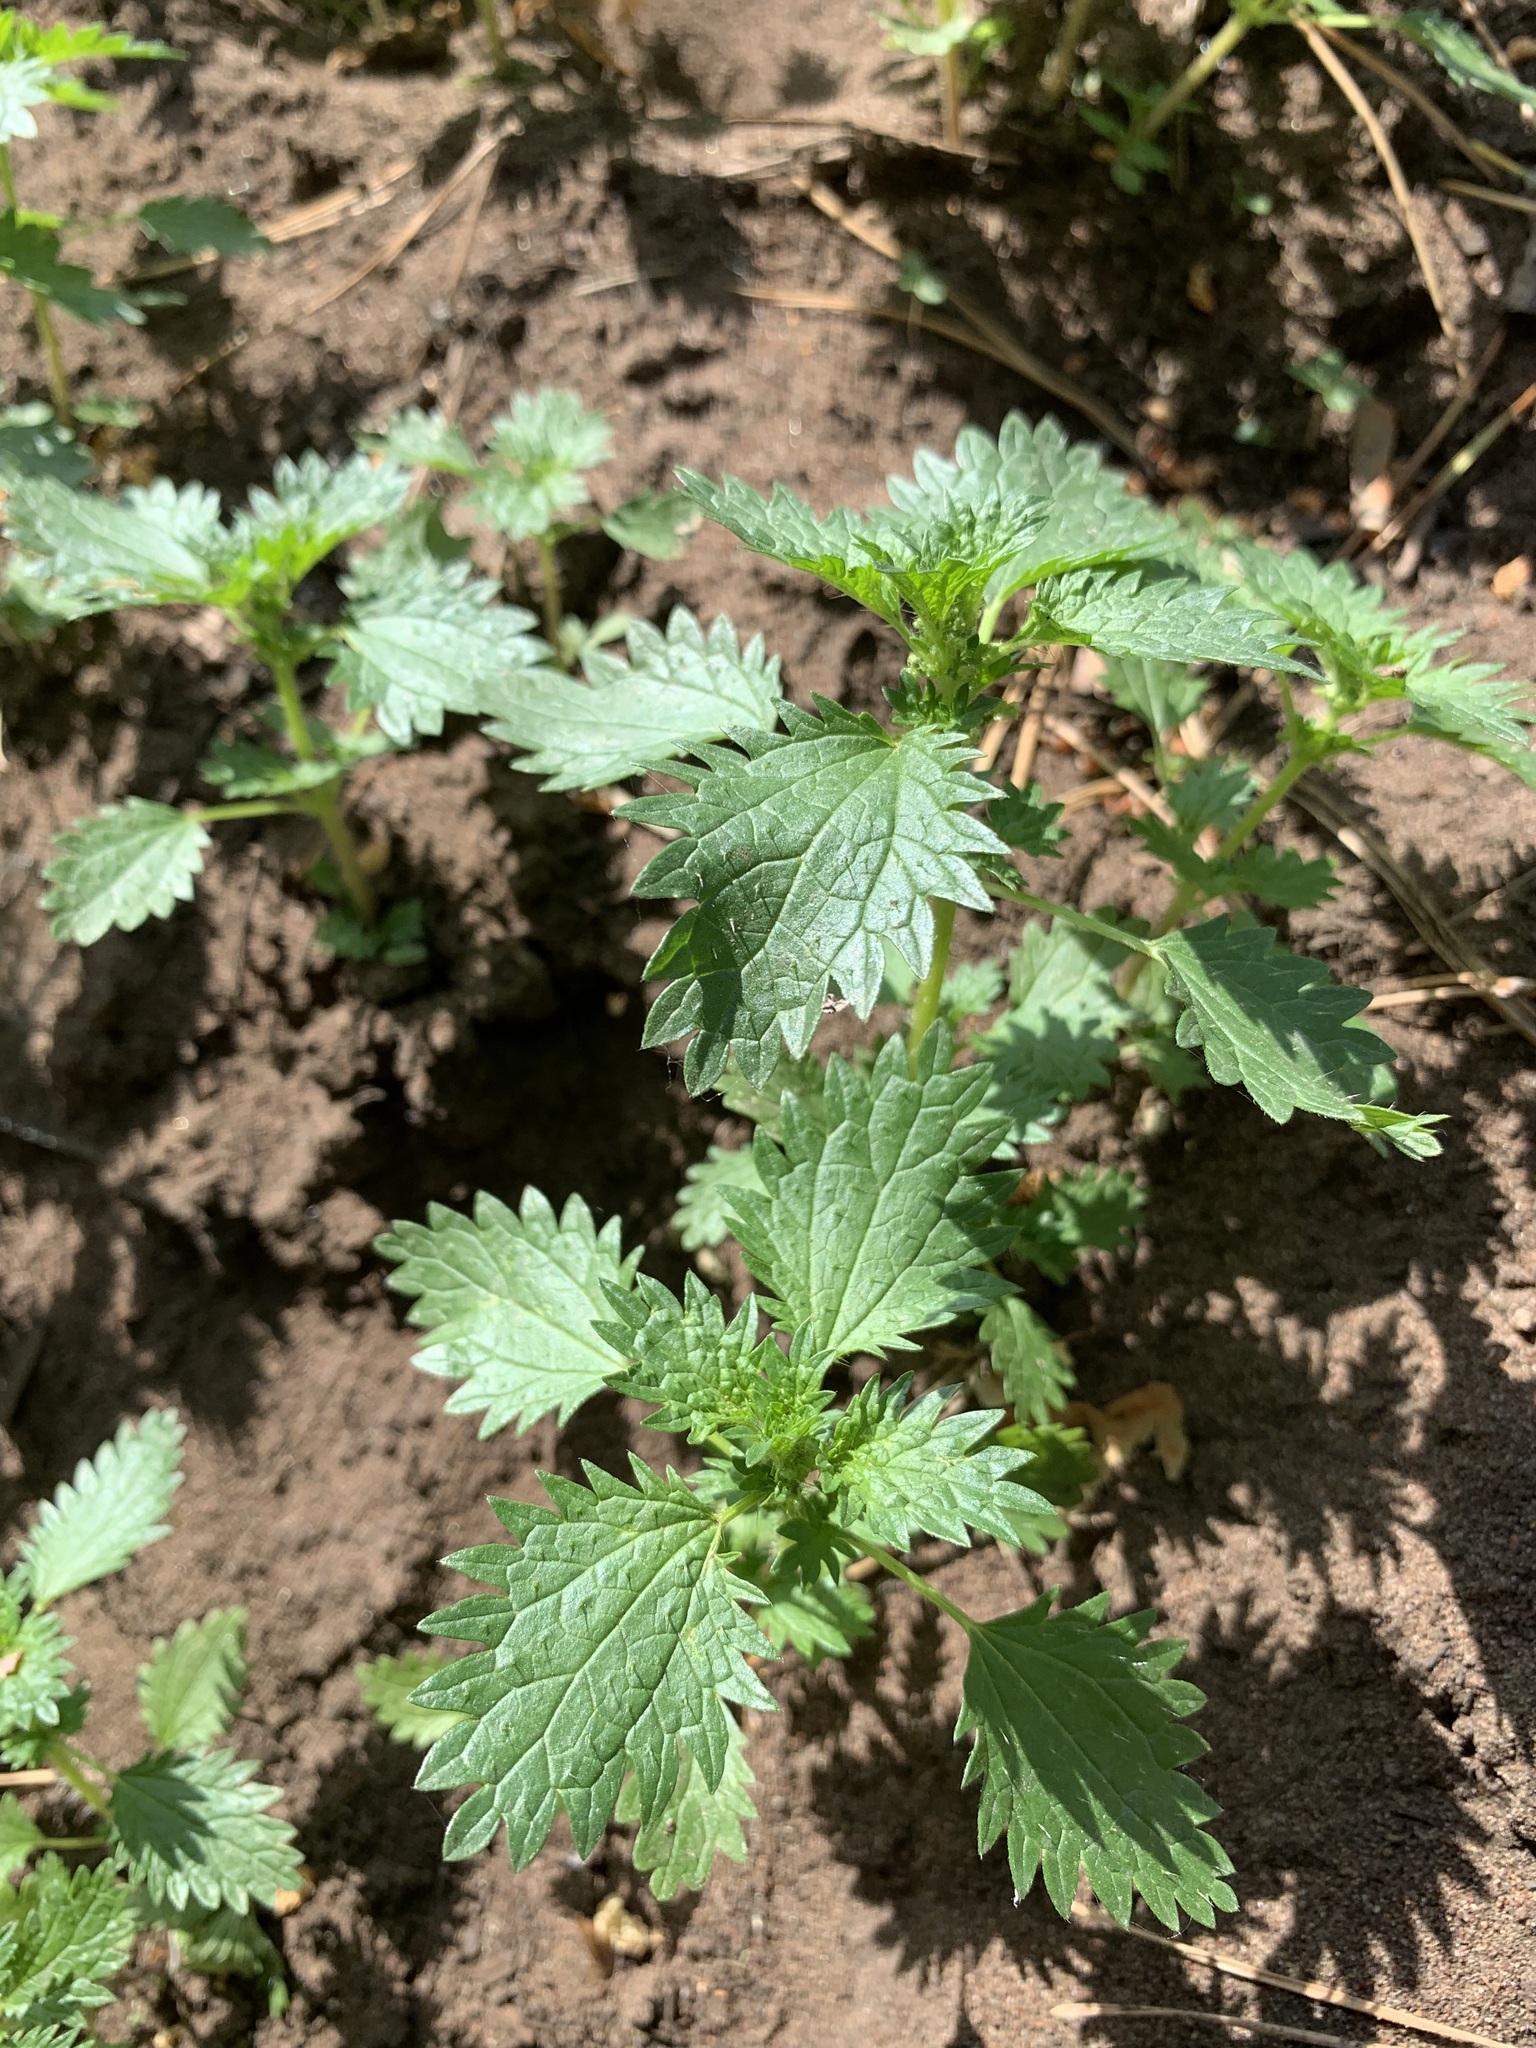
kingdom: Plantae
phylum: Tracheophyta
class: Magnoliopsida
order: Rosales
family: Urticaceae
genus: Urtica
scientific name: Urtica urens
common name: Dwarf nettle
